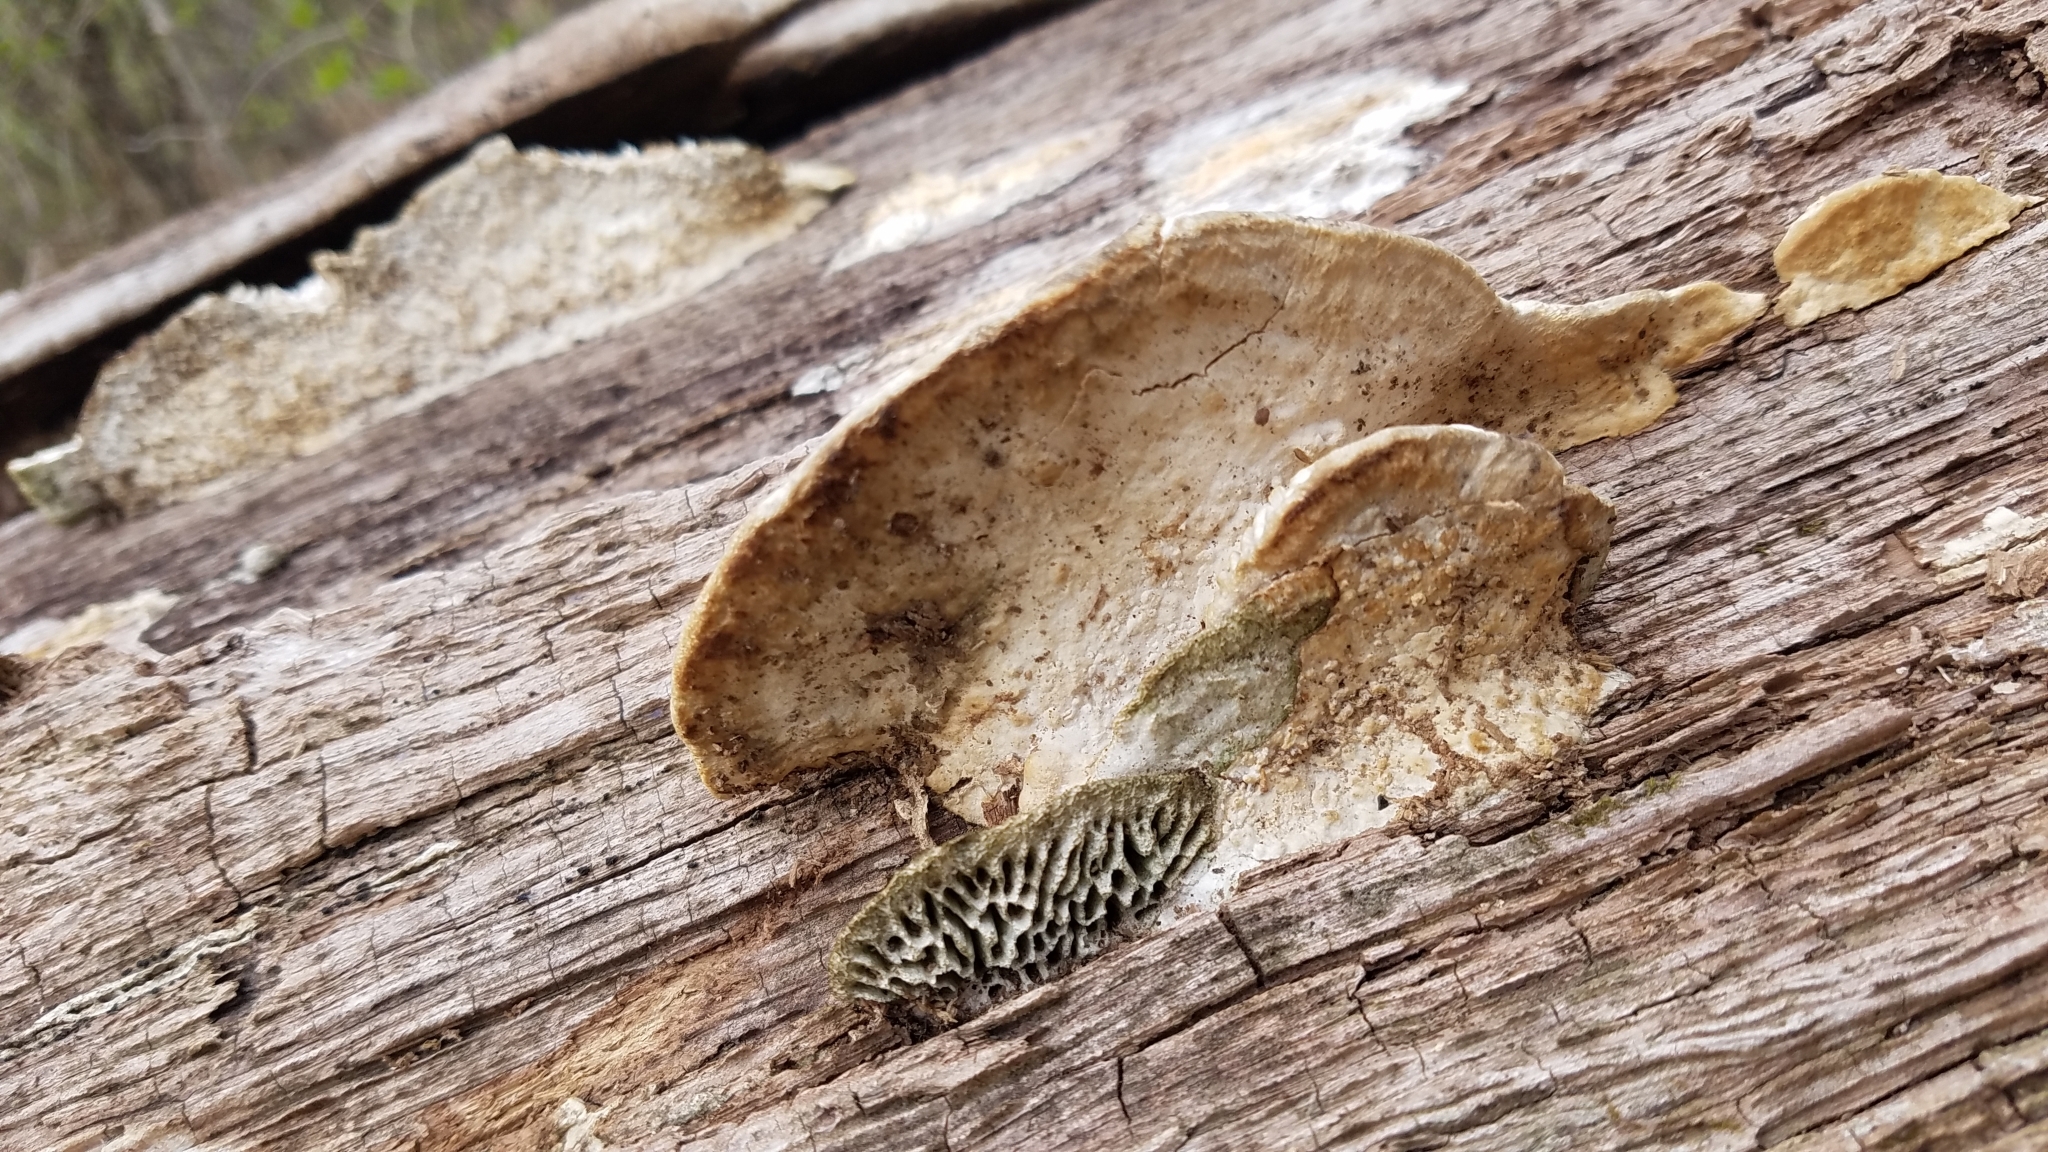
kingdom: Fungi
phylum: Basidiomycota
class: Agaricomycetes
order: Polyporales
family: Fomitopsidaceae
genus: Fomitopsis
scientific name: Fomitopsis
